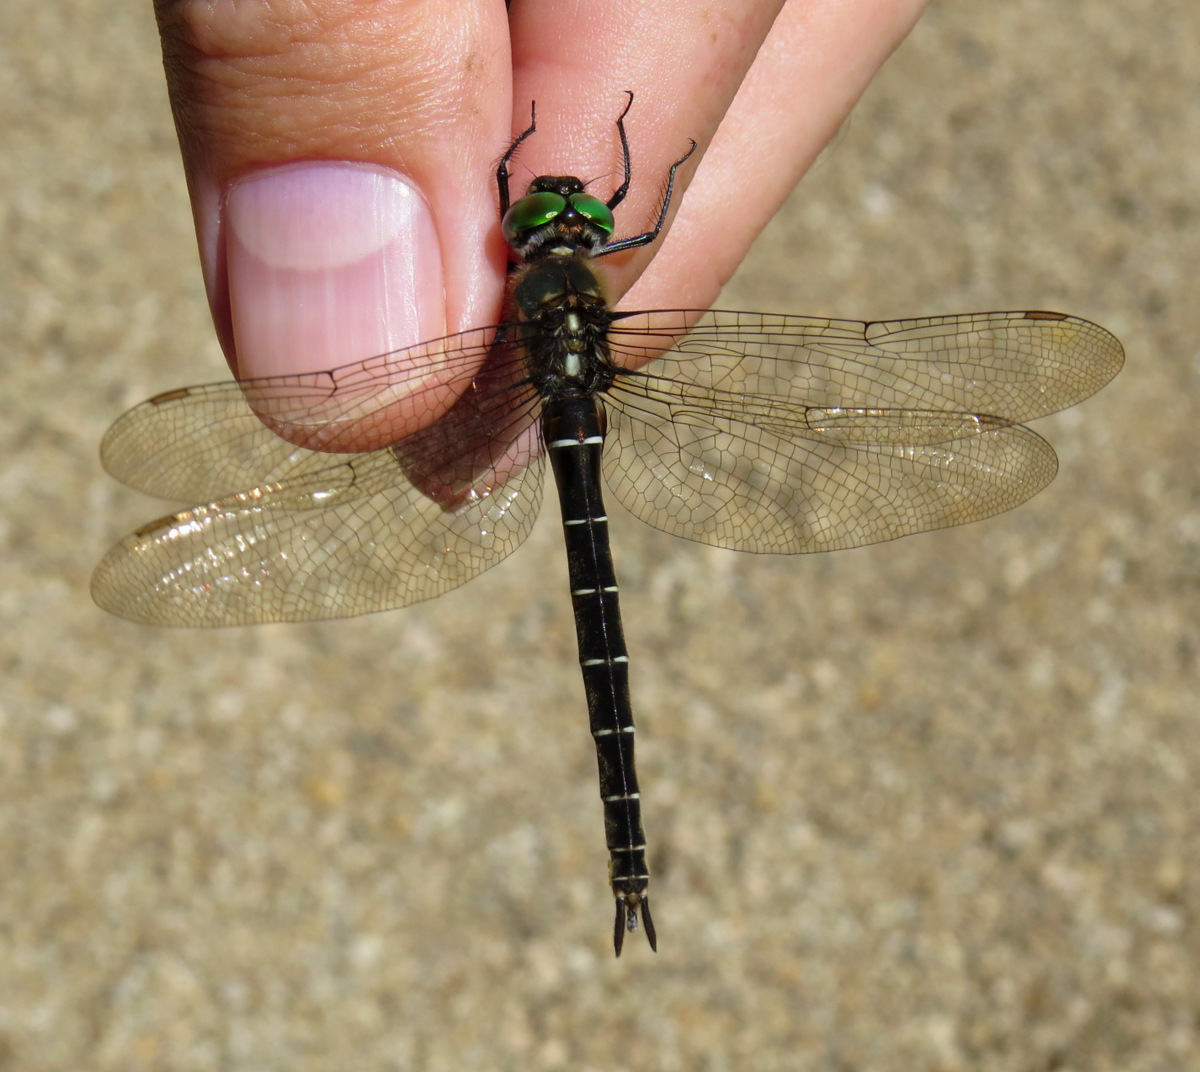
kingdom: Animalia
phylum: Arthropoda
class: Insecta
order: Odonata
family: Corduliidae
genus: Somatochlora
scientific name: Somatochlora albicincta
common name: Ringed emerald
